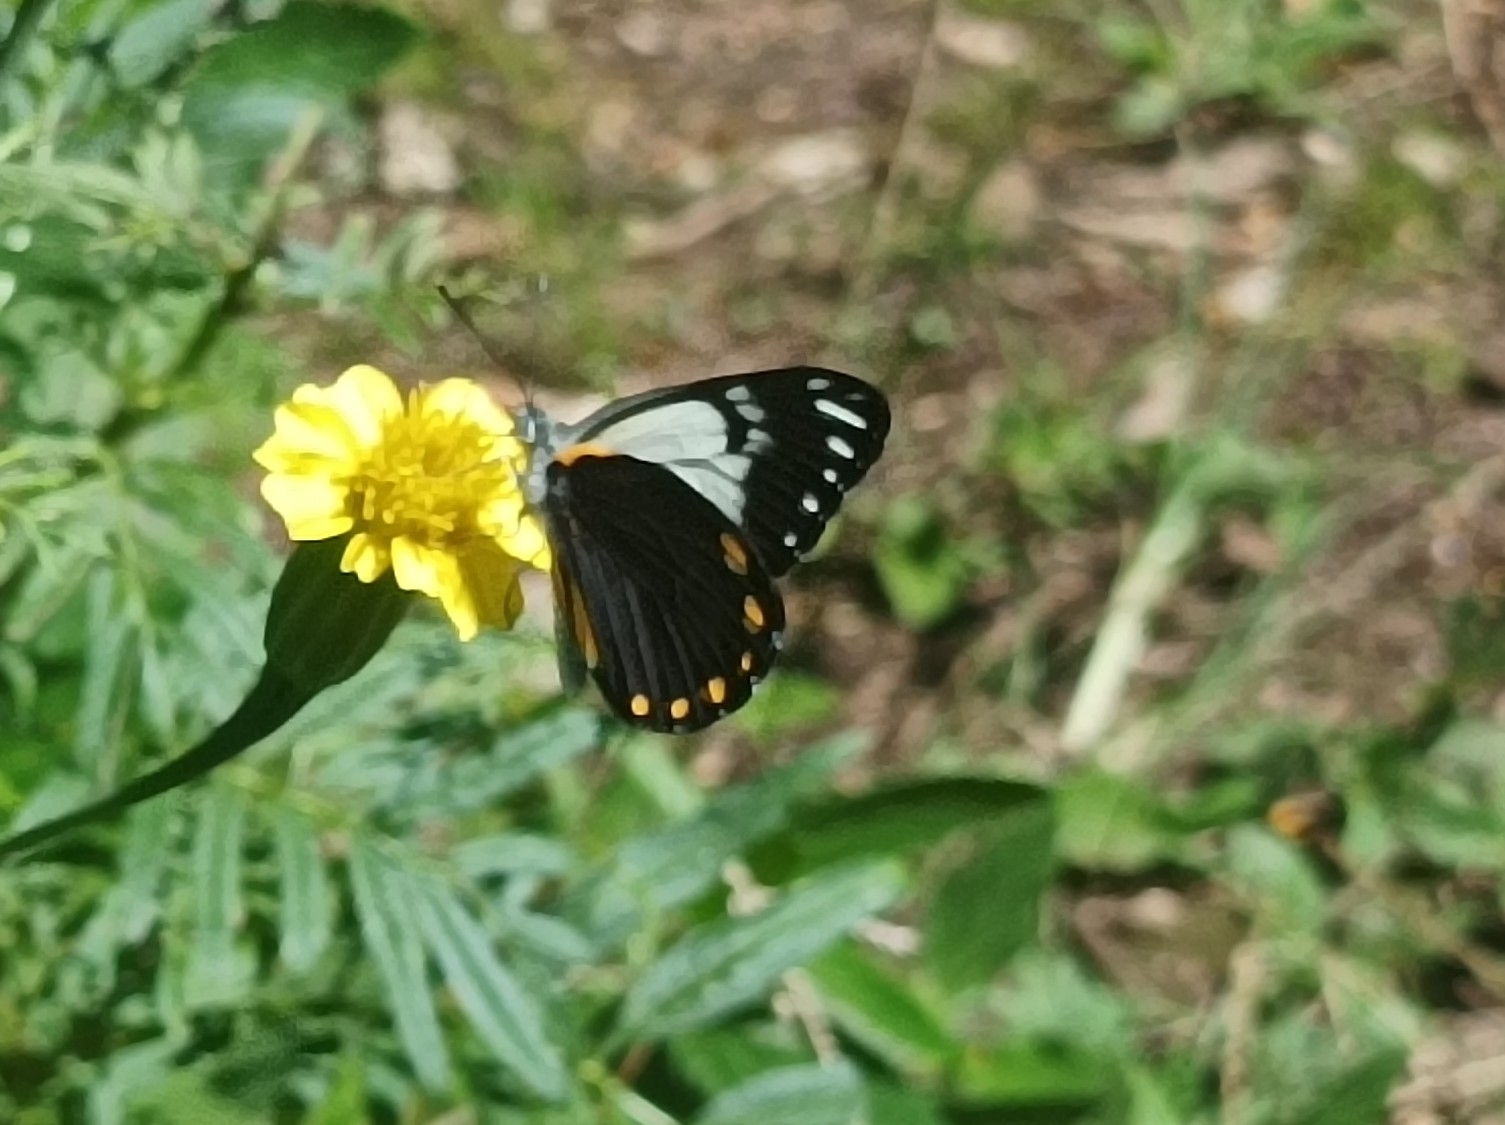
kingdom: Animalia
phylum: Arthropoda
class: Insecta
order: Lepidoptera
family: Pieridae
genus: Belenois
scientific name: Belenois java
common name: Caper white
